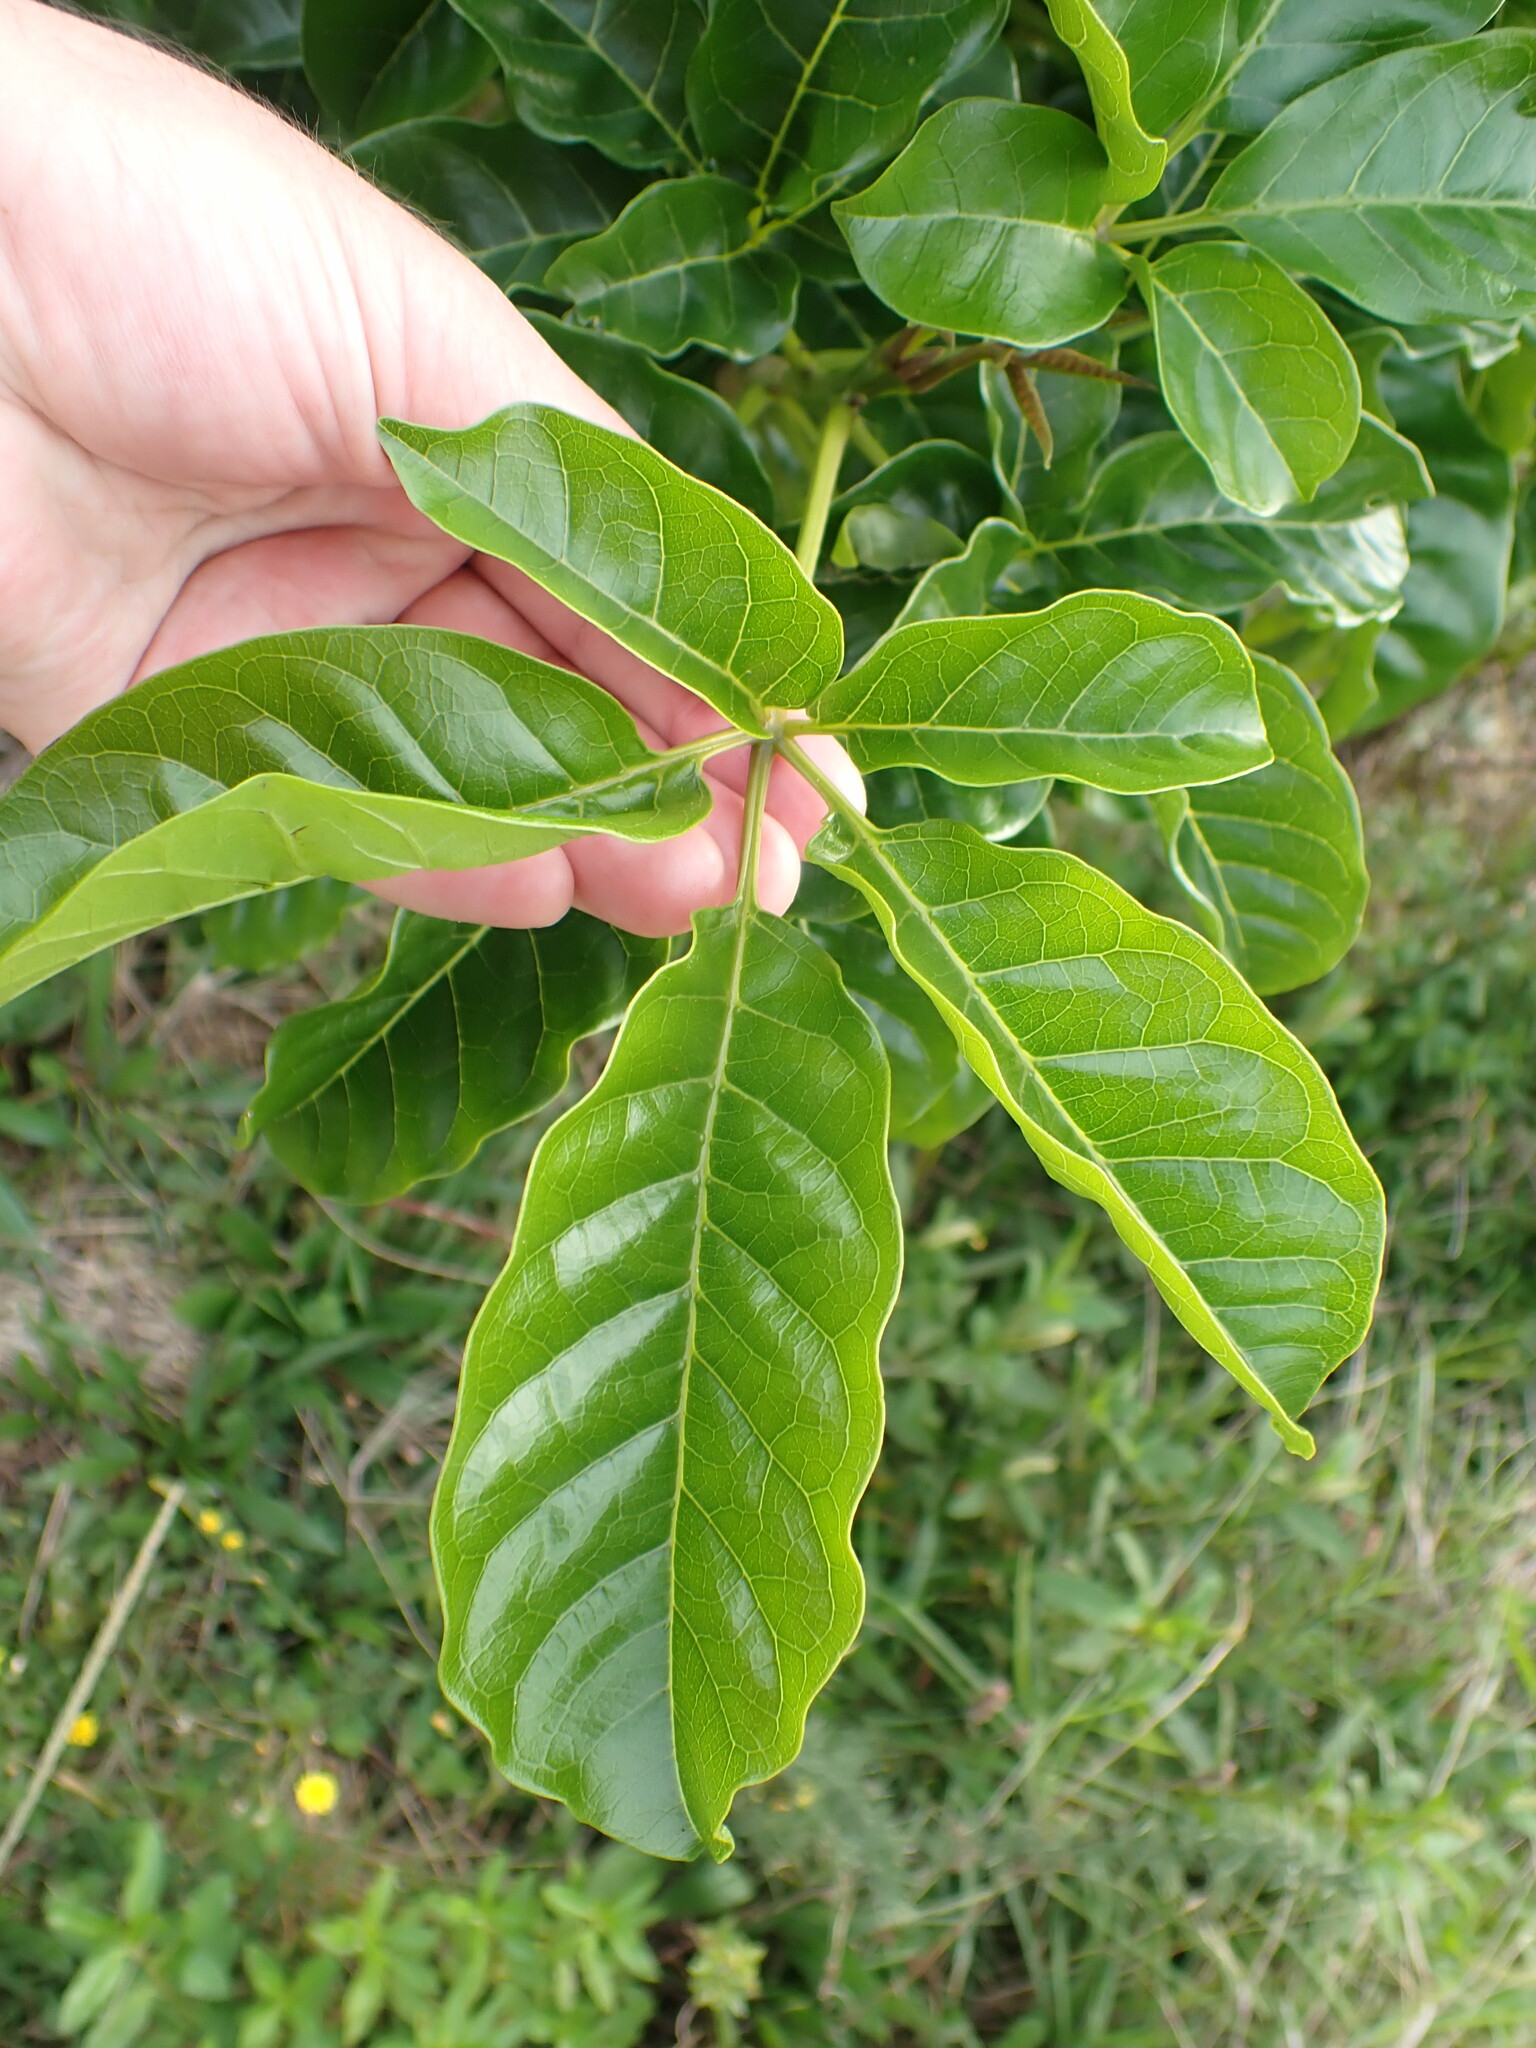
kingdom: Plantae
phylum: Tracheophyta
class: Magnoliopsida
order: Lamiales
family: Lamiaceae
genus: Vitex
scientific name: Vitex lucens
